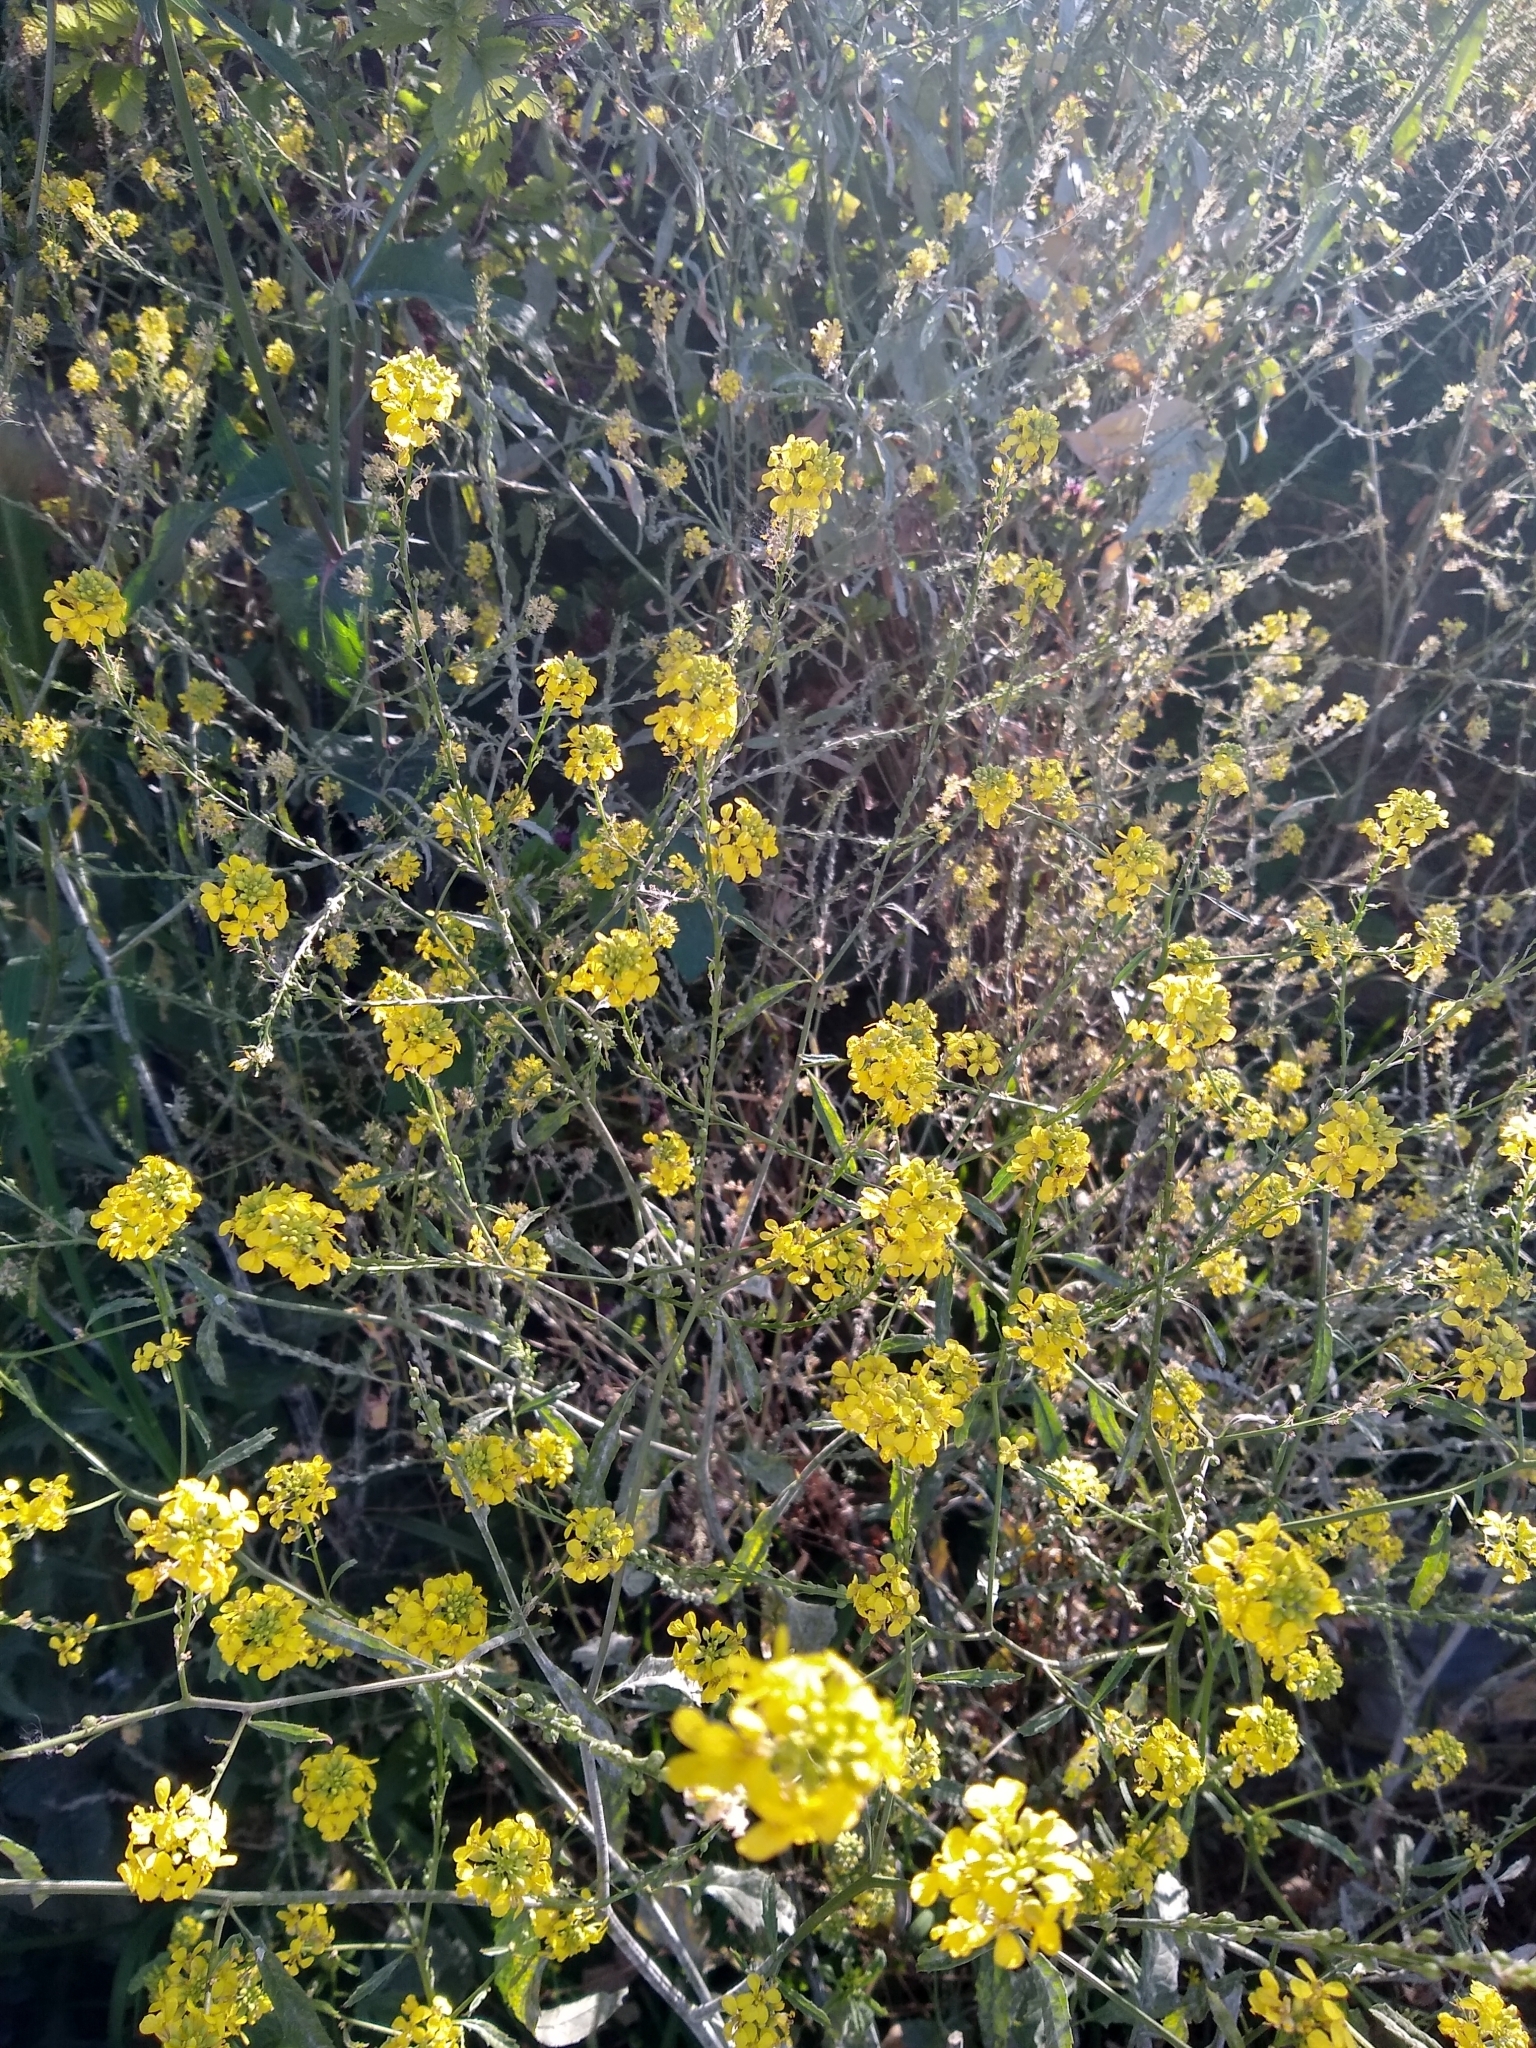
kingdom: Plantae
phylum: Tracheophyta
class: Magnoliopsida
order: Brassicales
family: Brassicaceae
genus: Rapistrum
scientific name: Rapistrum rugosum
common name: Annual bastardcabbage
